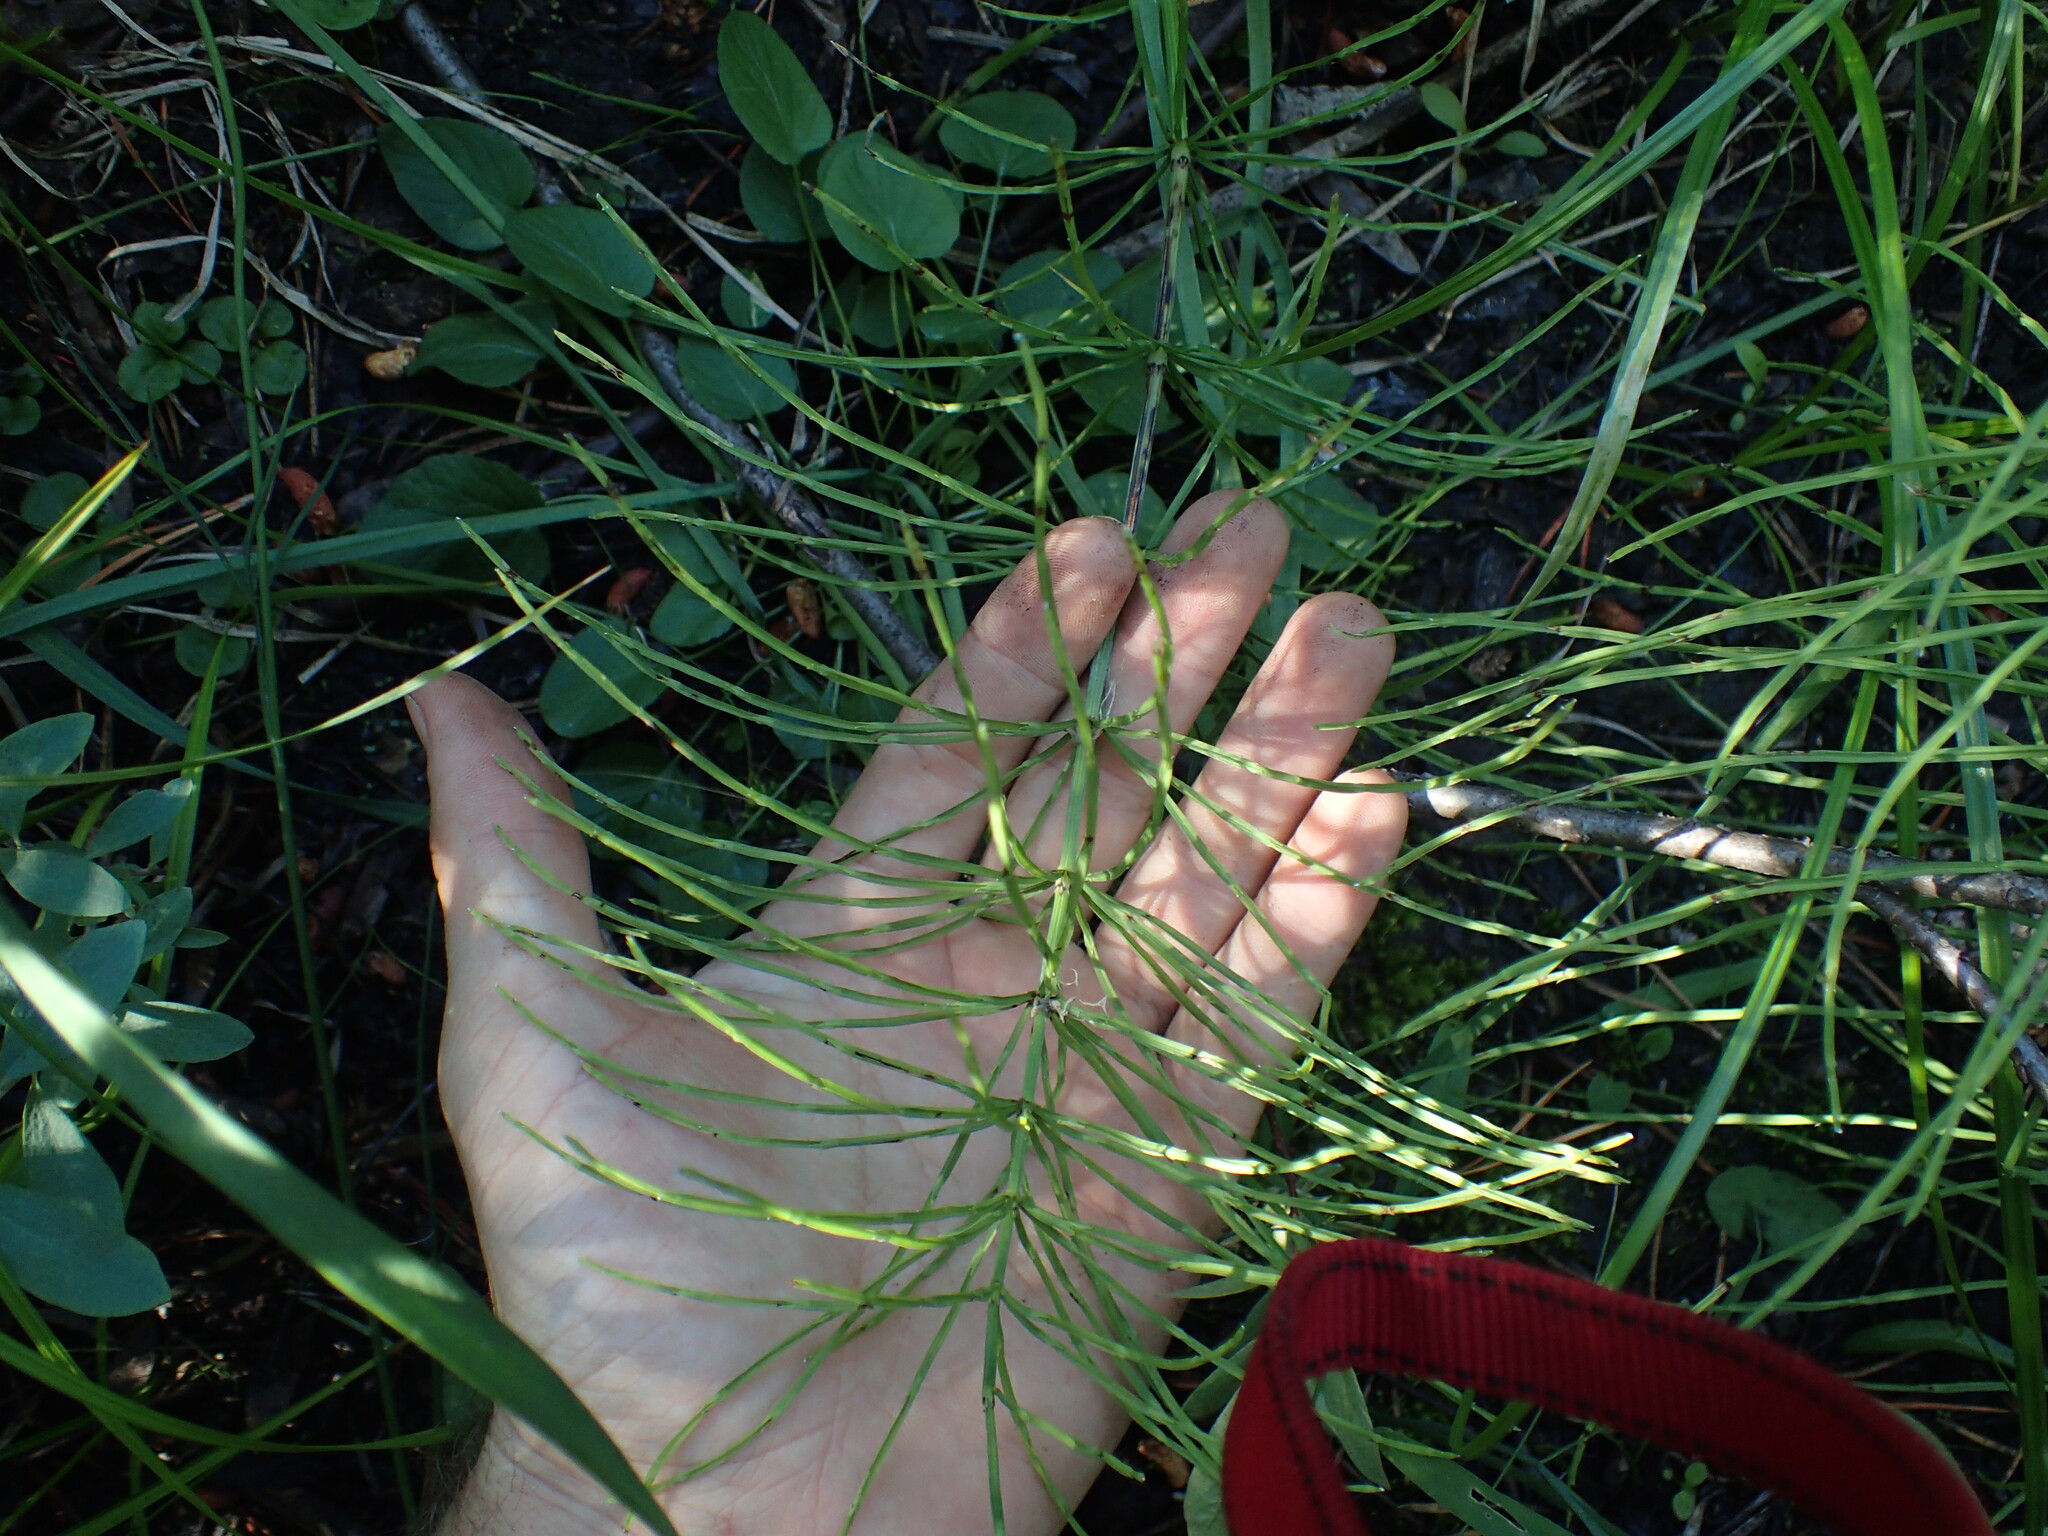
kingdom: Plantae
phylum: Tracheophyta
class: Polypodiopsida
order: Equisetales
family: Equisetaceae
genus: Equisetum
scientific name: Equisetum arvense
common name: Field horsetail
